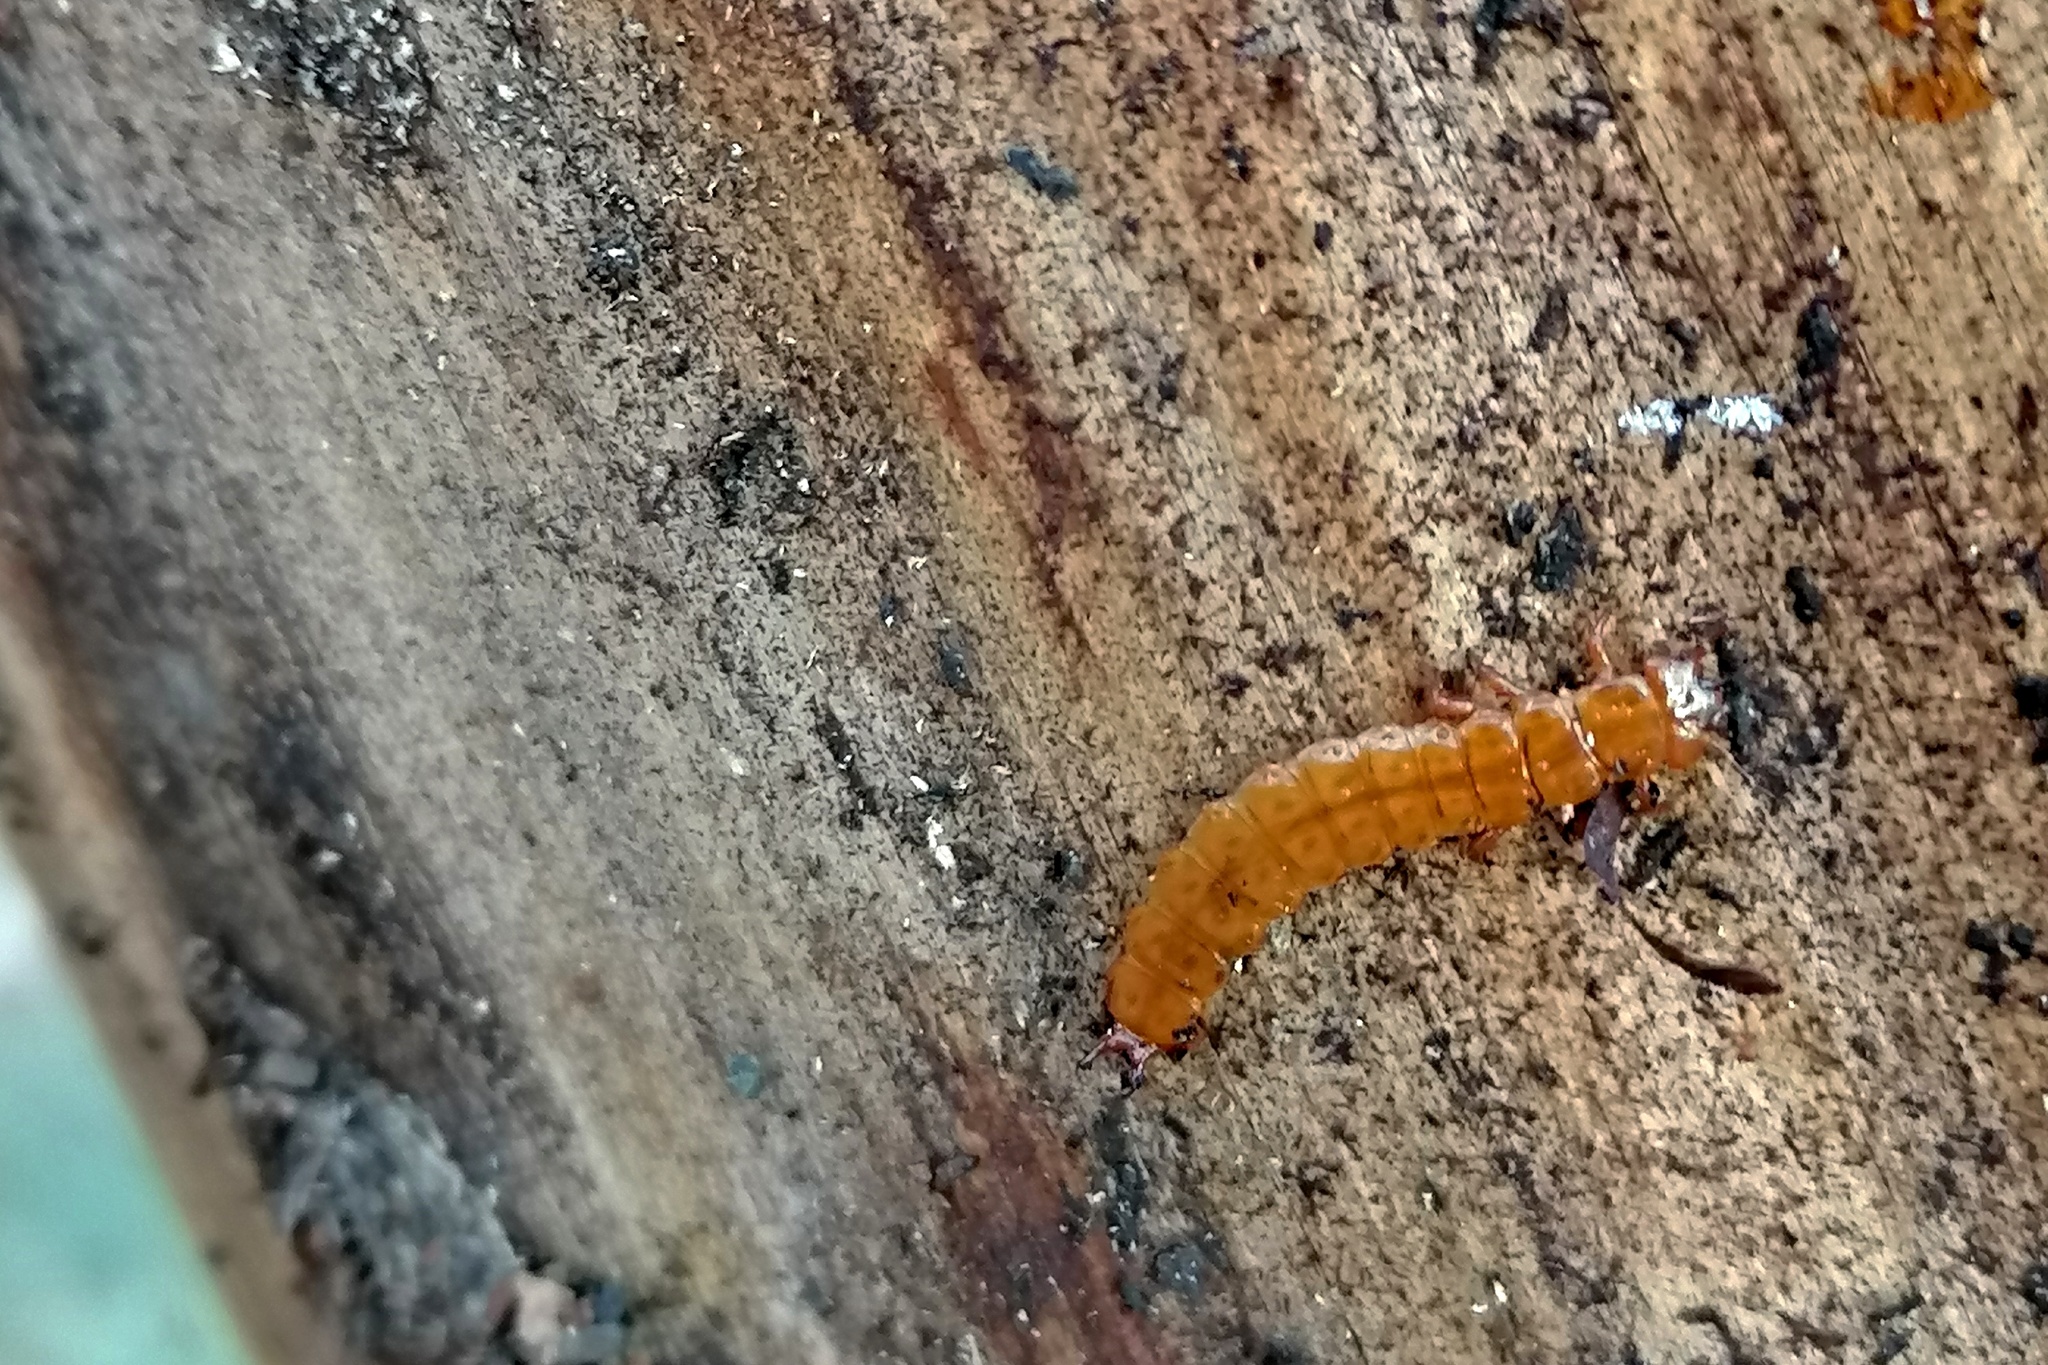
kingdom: Animalia
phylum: Arthropoda
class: Insecta
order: Coleoptera
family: Cucujidae
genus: Cucujus
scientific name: Cucujus cinnaberinus
